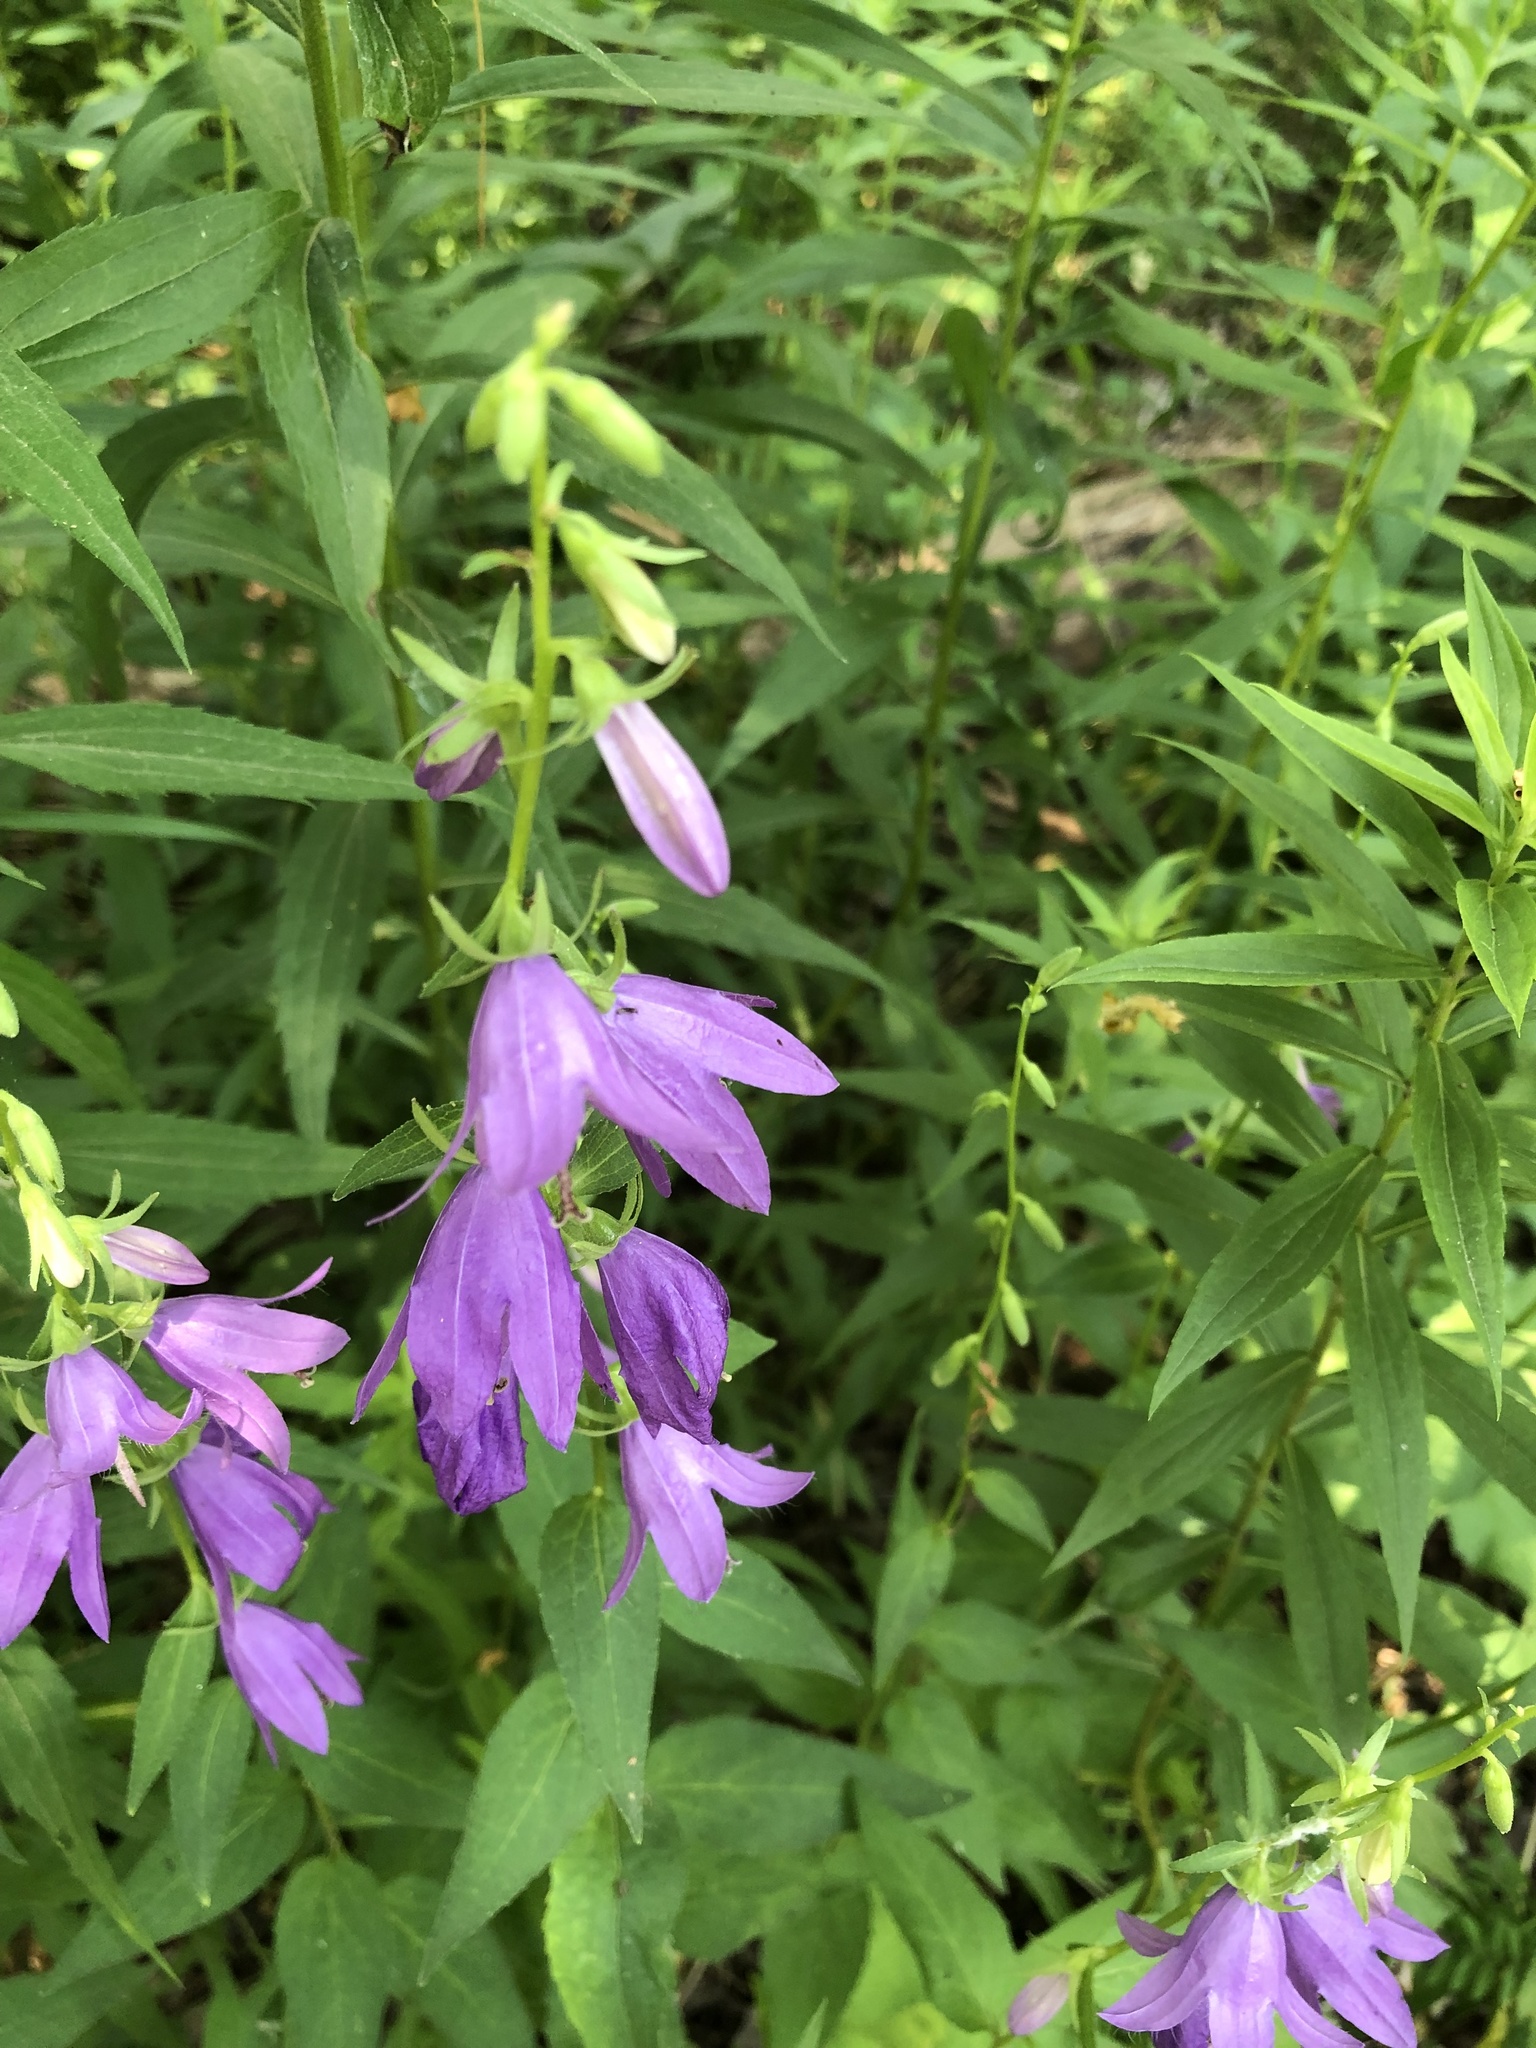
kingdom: Plantae
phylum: Tracheophyta
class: Magnoliopsida
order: Asterales
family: Campanulaceae
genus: Campanula
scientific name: Campanula rapunculoides
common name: Creeping bellflower
